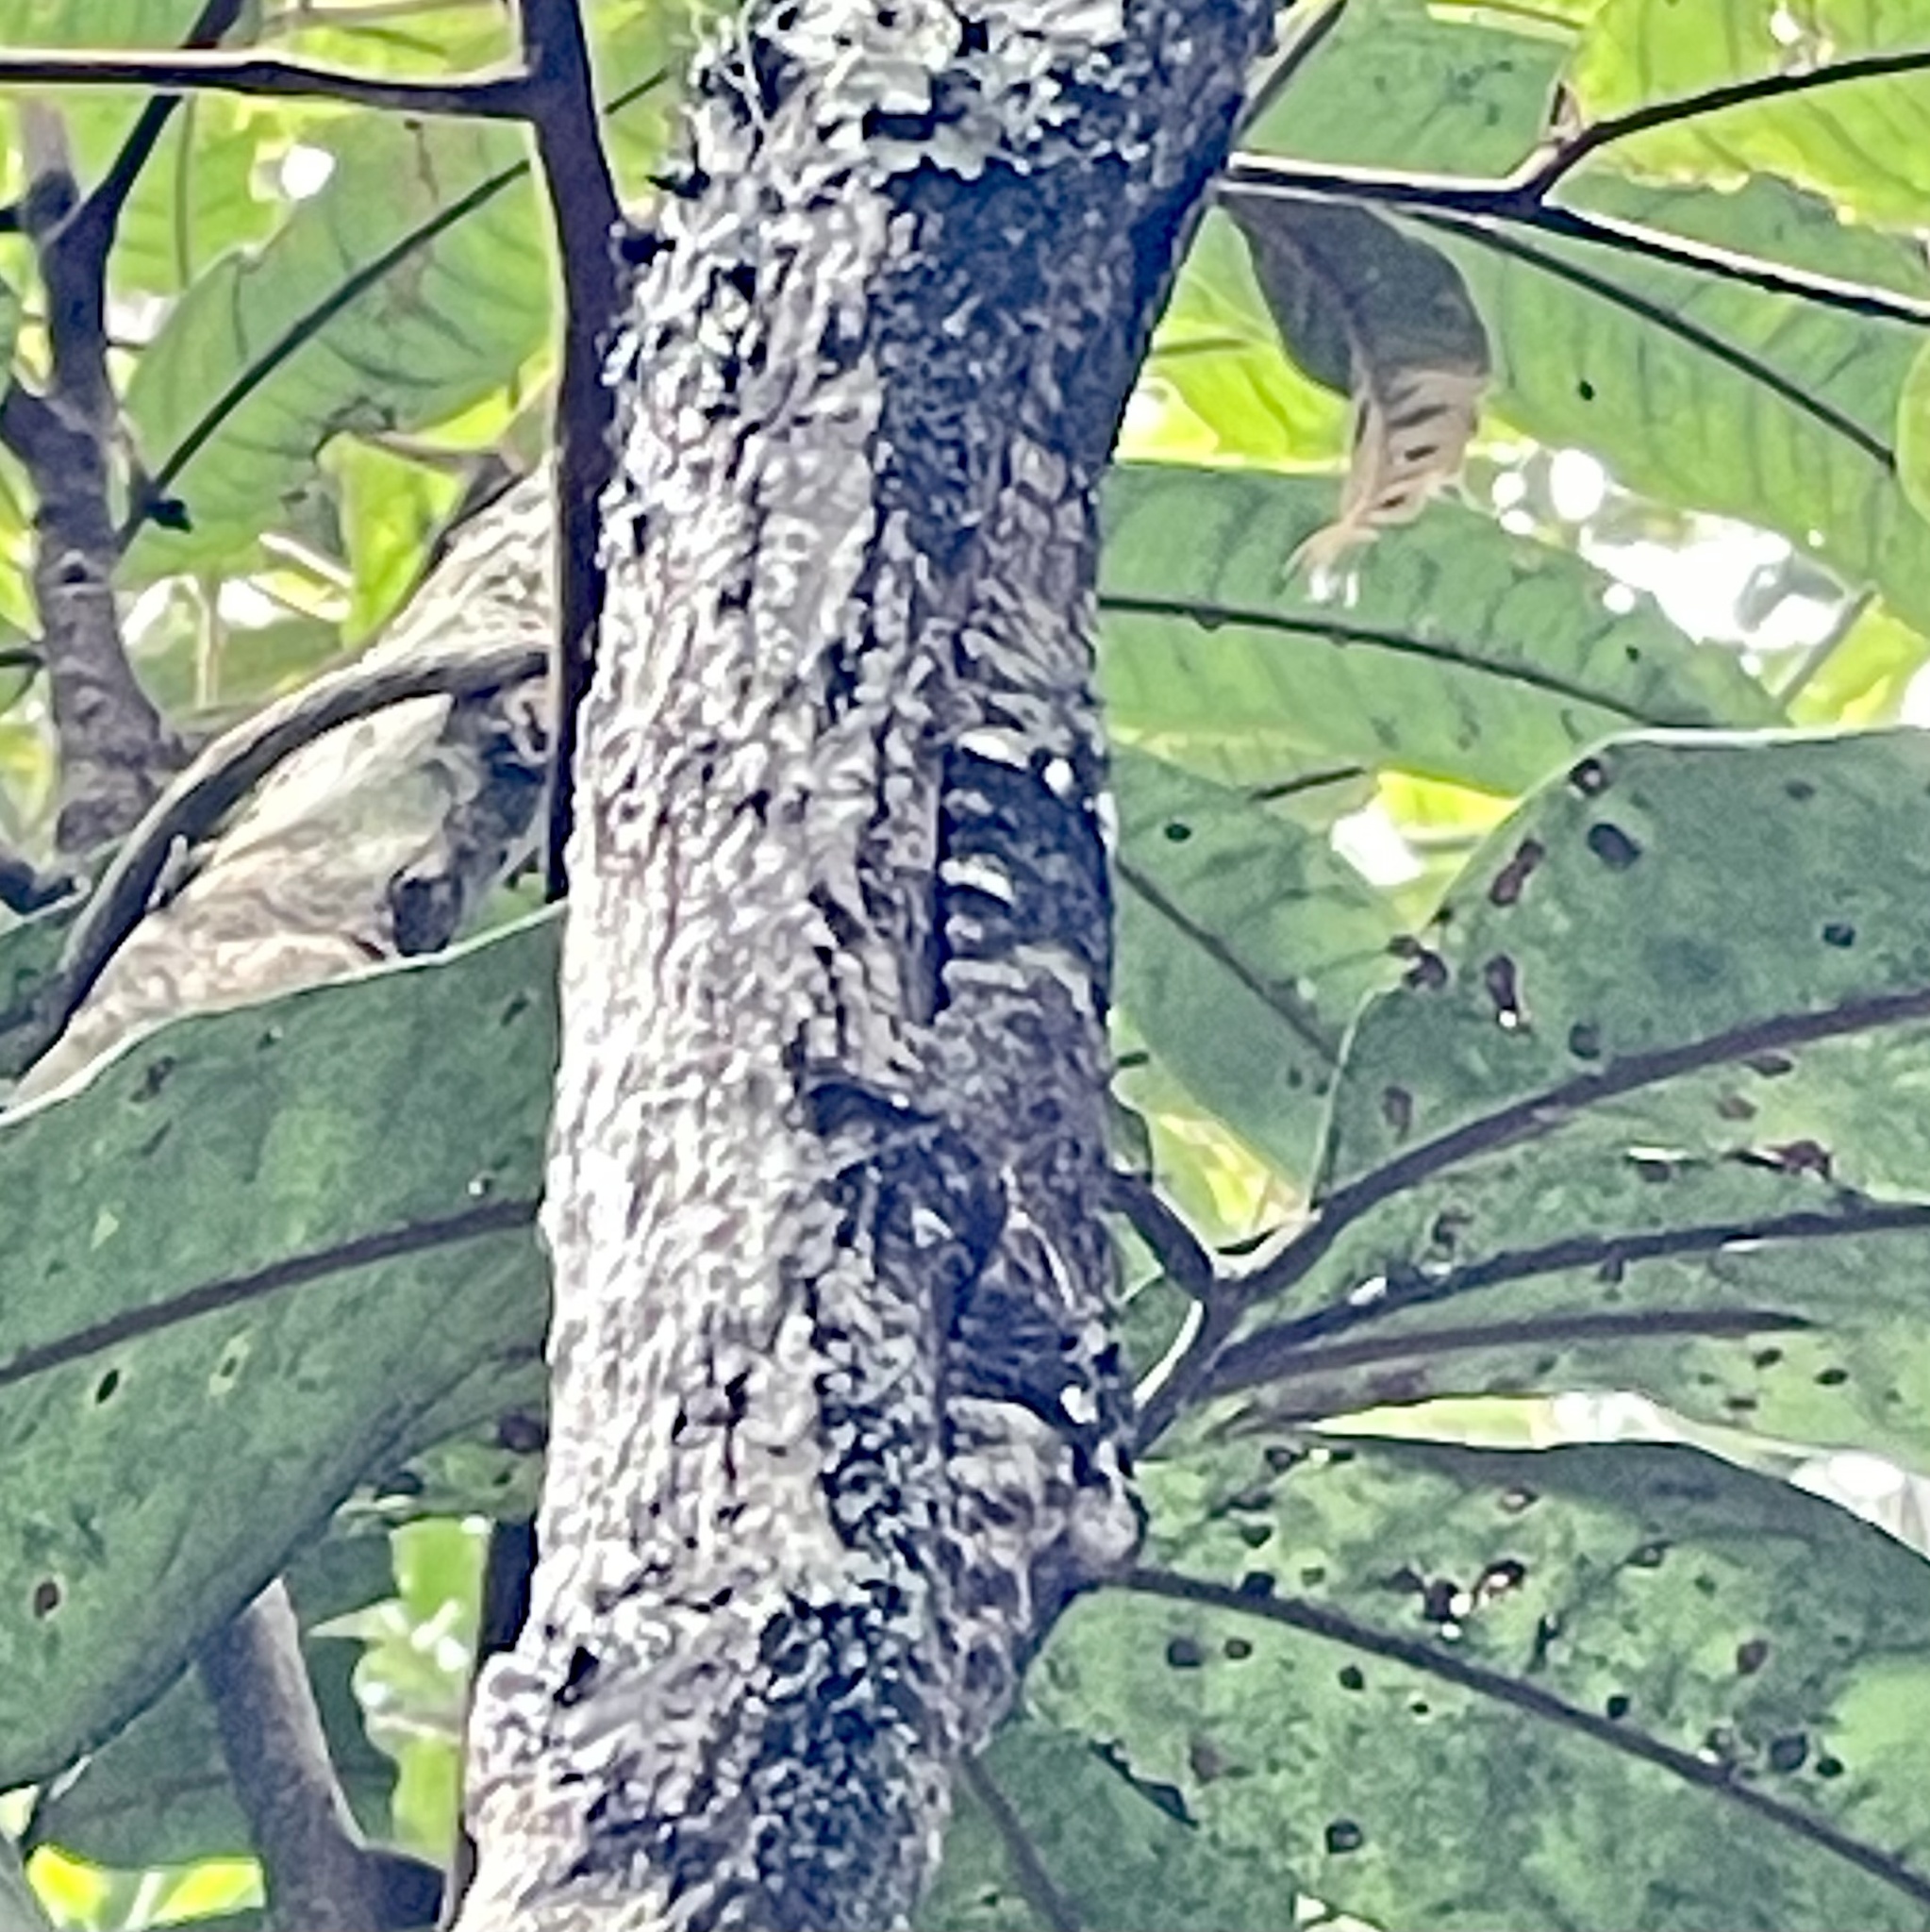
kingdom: Animalia
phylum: Chordata
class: Squamata
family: Gekkonidae
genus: Uroplatus
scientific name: Uroplatus sikorae
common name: Southern flat-tail gecko
